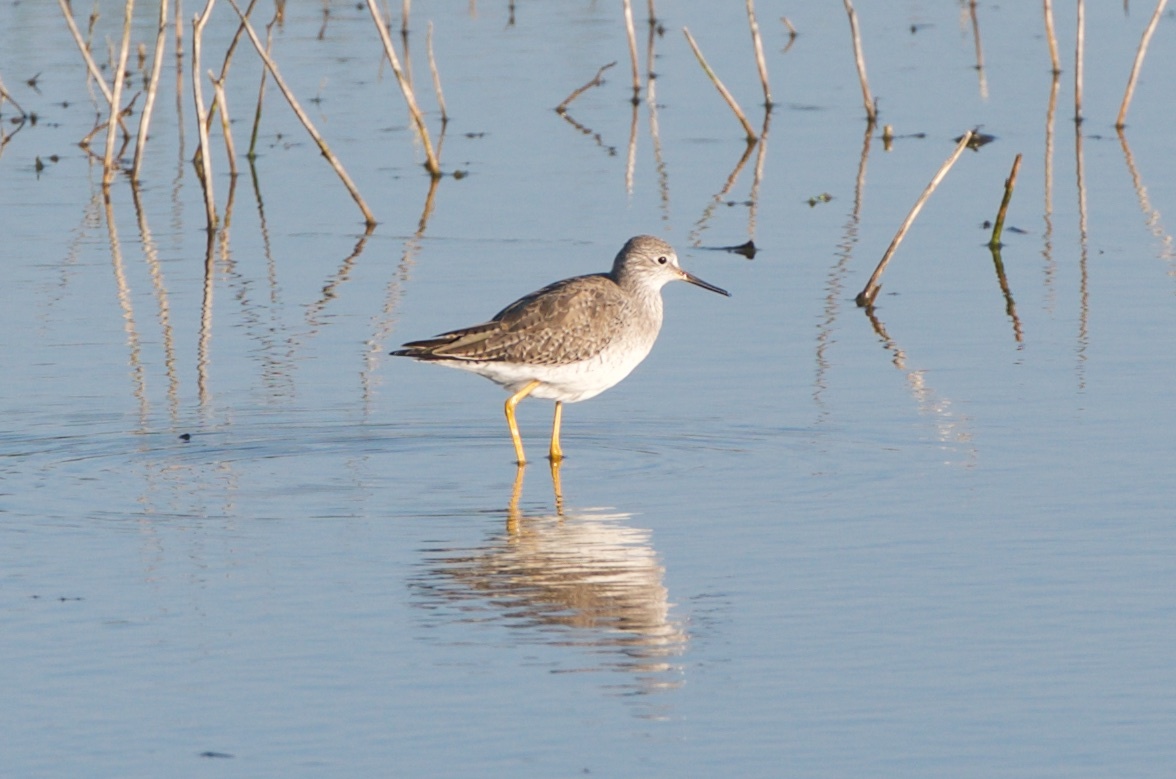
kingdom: Animalia
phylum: Chordata
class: Aves
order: Charadriiformes
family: Scolopacidae
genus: Tringa
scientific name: Tringa melanoleuca
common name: Greater yellowlegs
